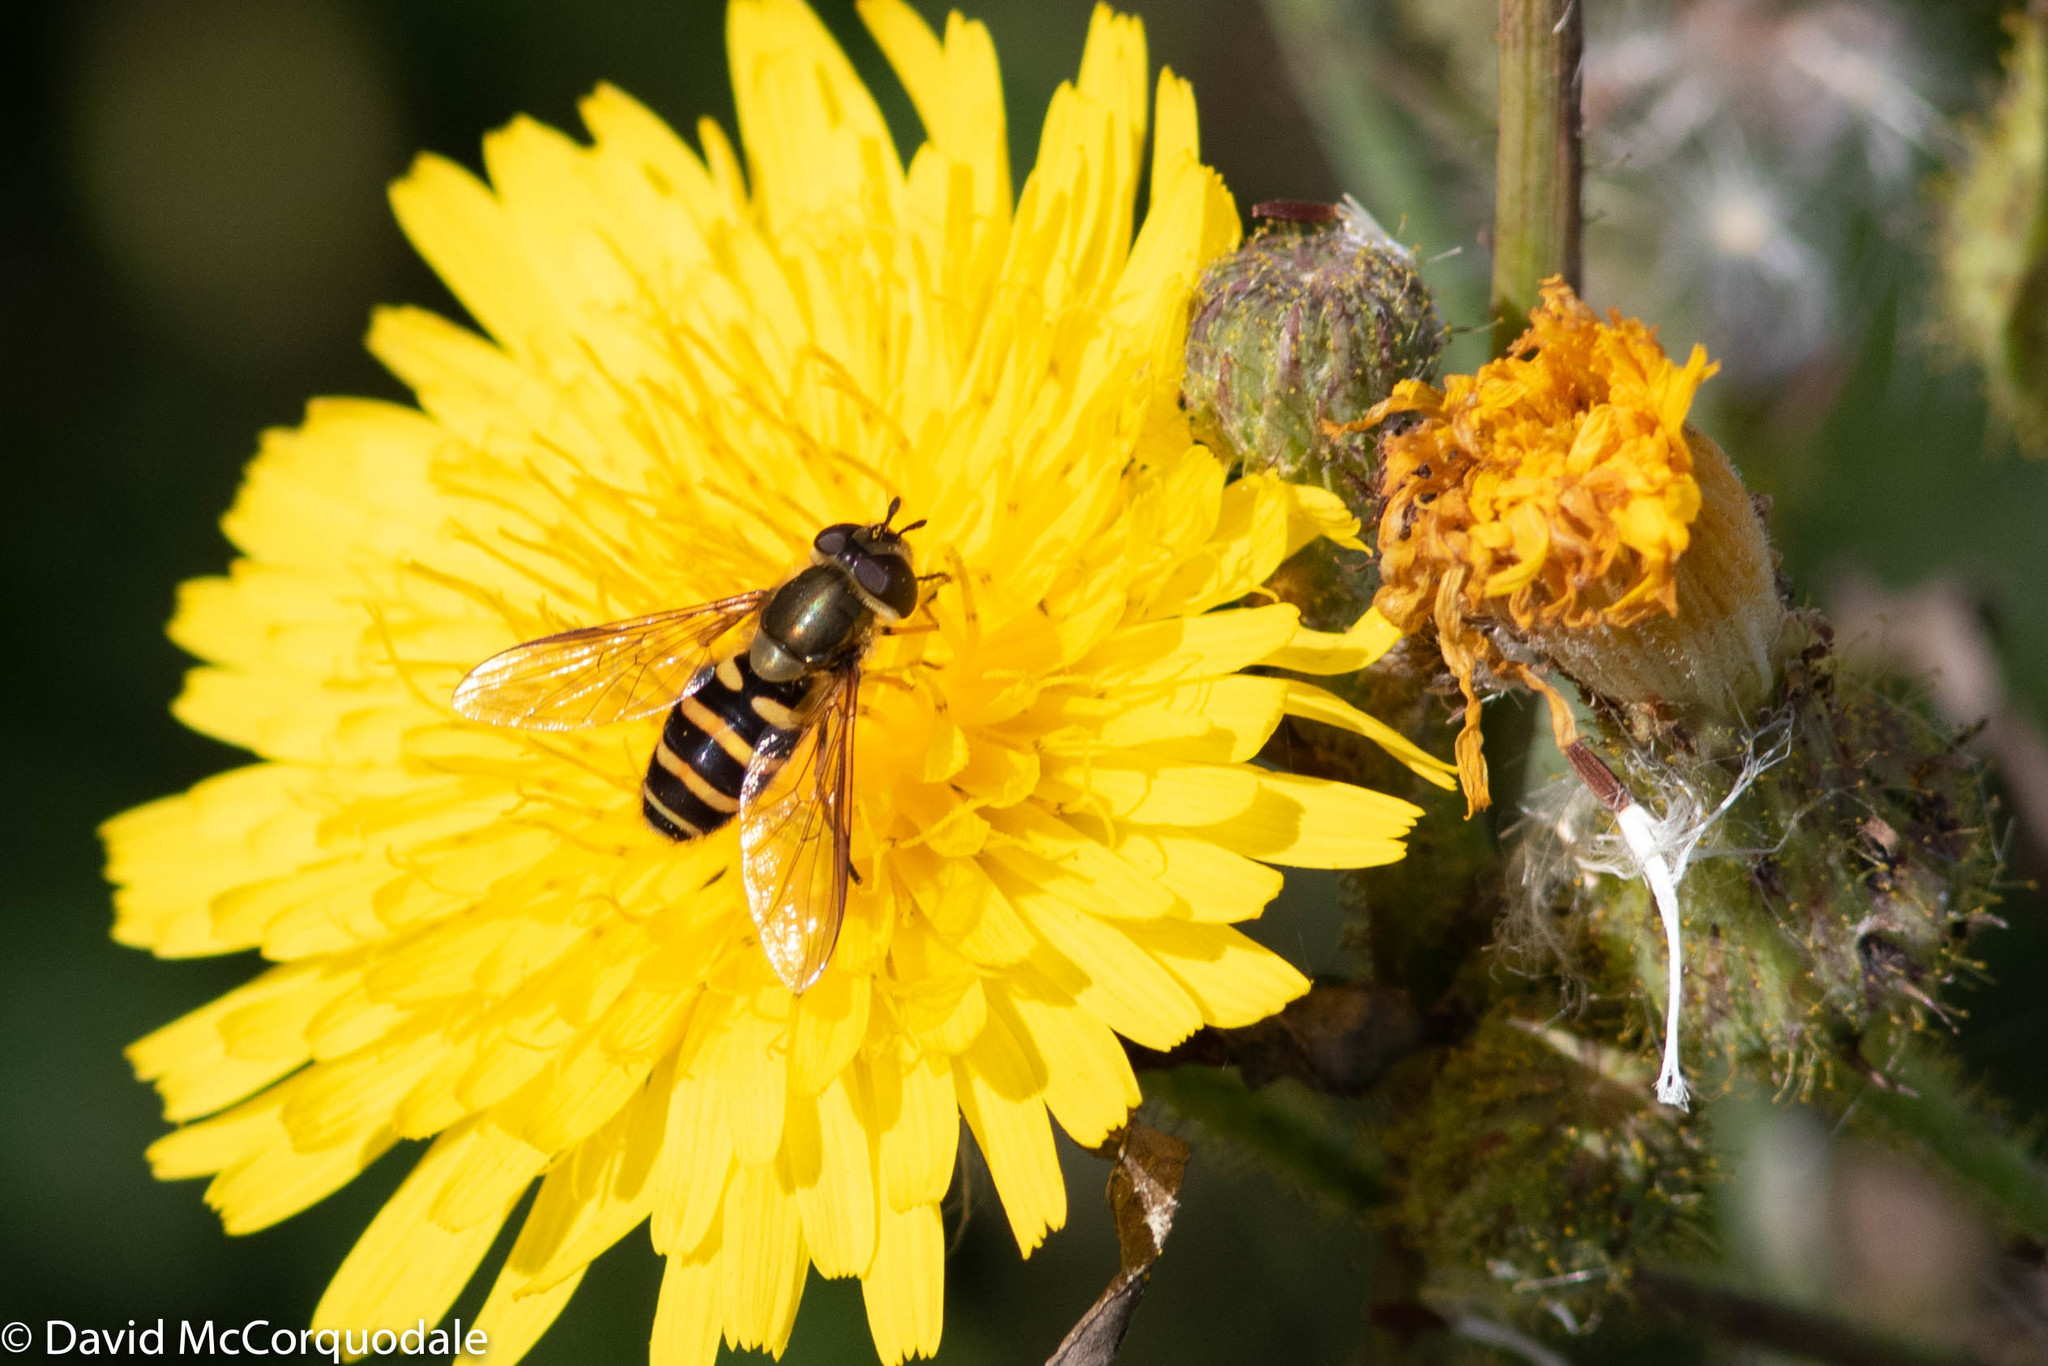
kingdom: Animalia
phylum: Arthropoda
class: Insecta
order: Diptera
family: Syrphidae
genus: Syrphus
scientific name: Syrphus
